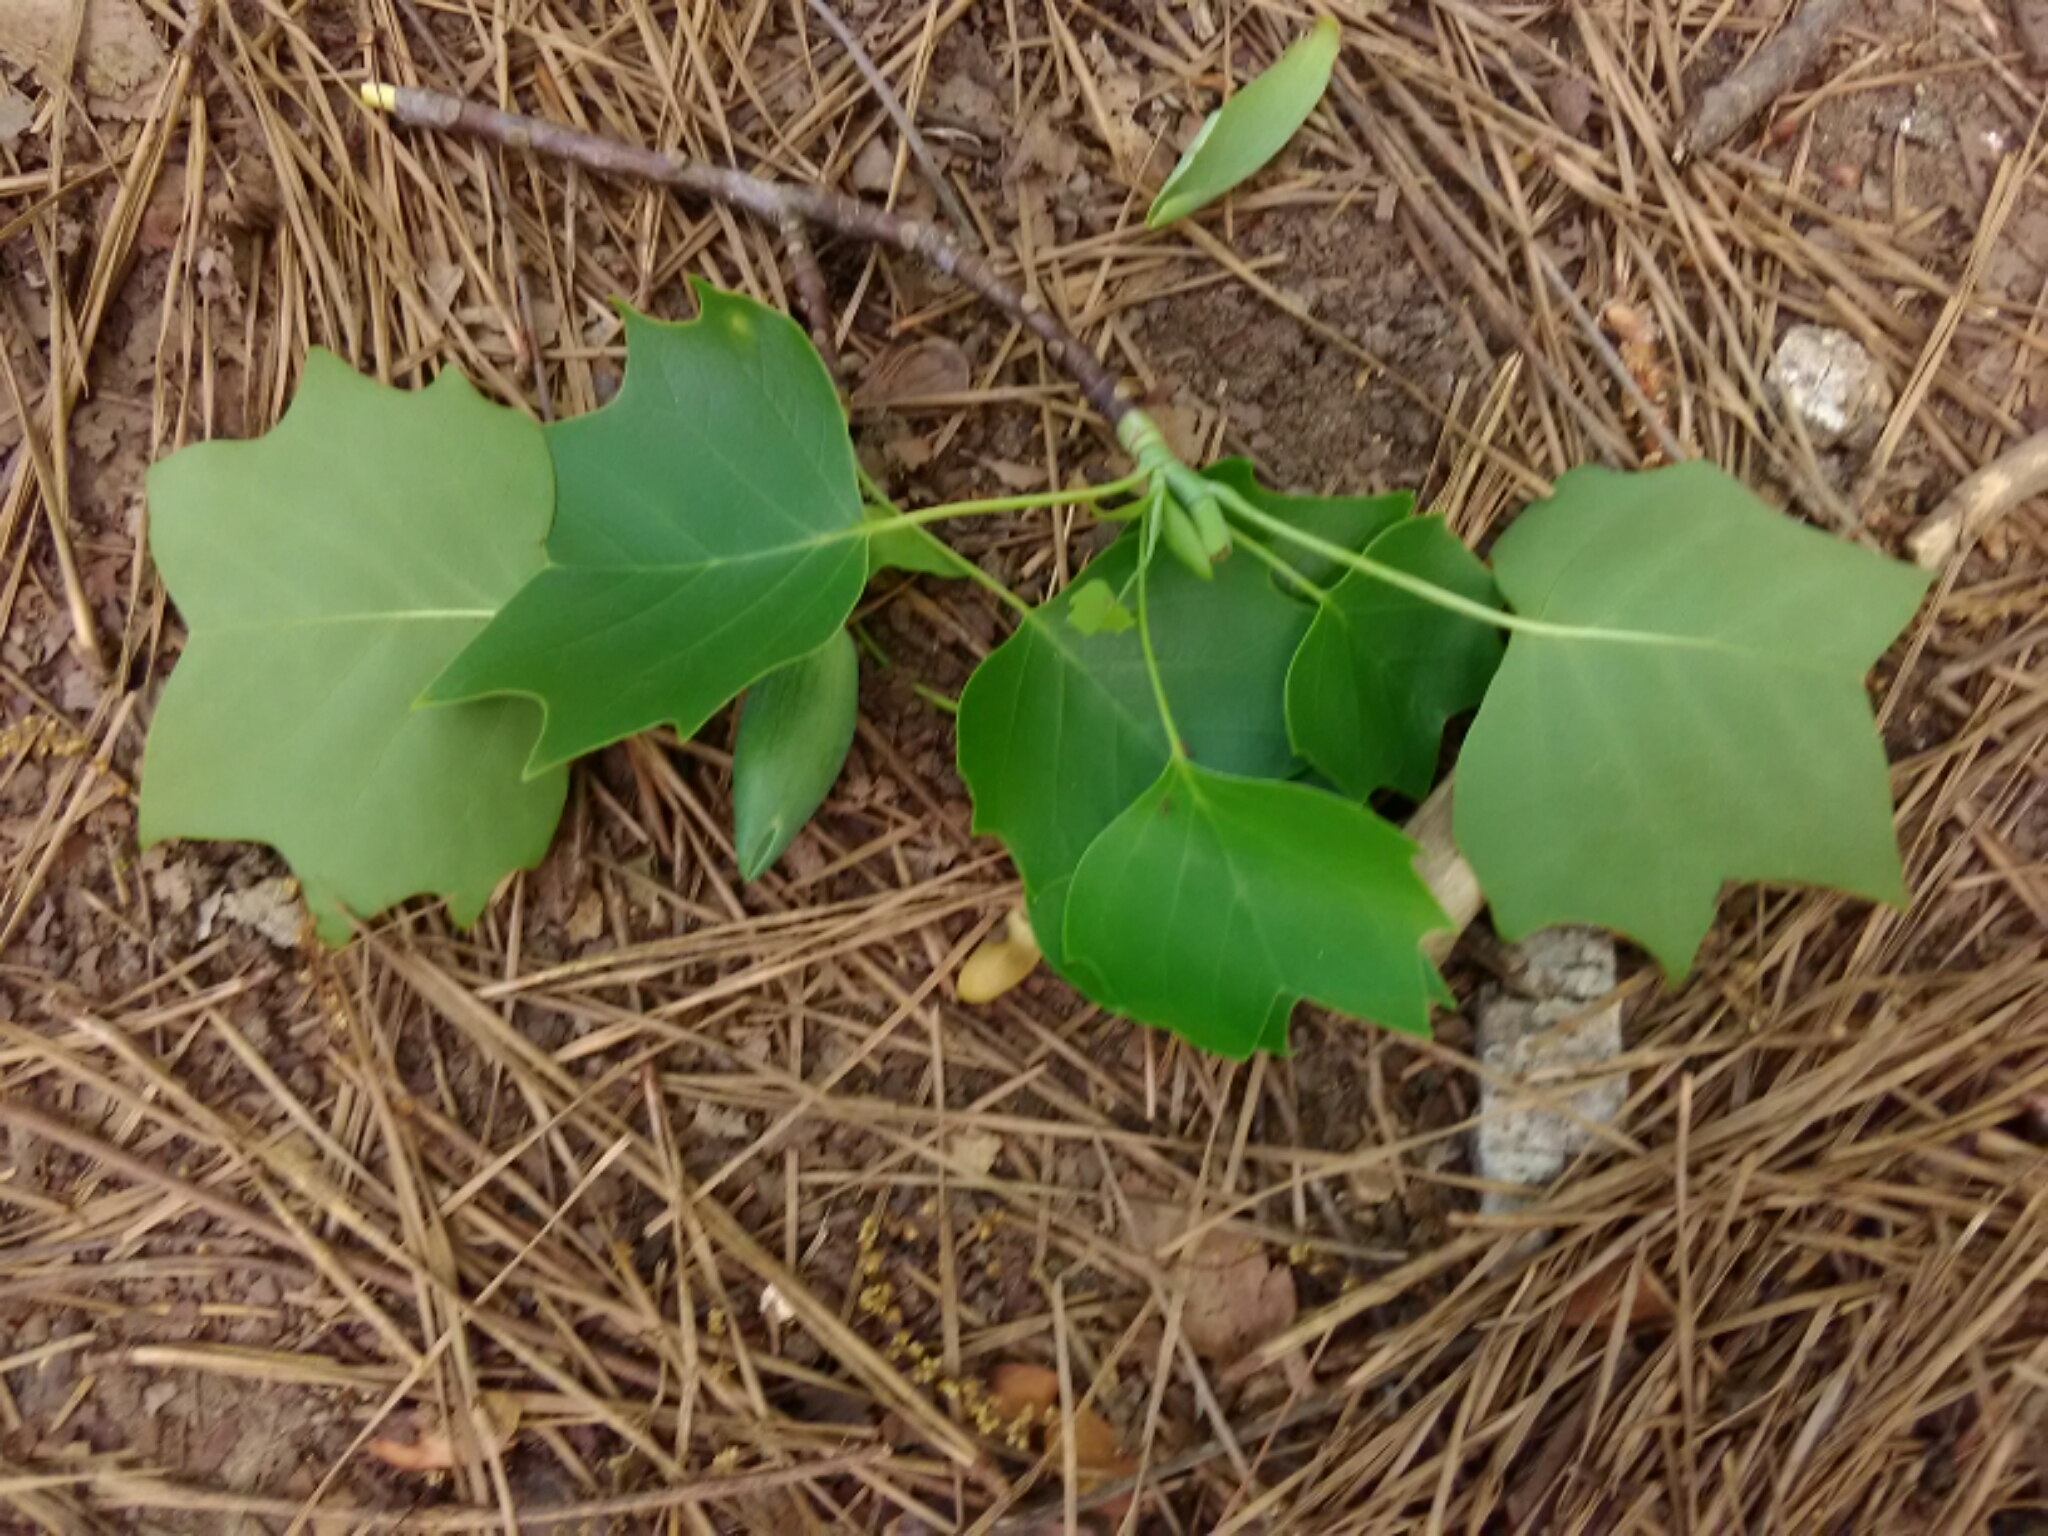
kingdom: Plantae
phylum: Tracheophyta
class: Magnoliopsida
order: Magnoliales
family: Magnoliaceae
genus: Liriodendron
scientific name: Liriodendron tulipifera
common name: Tulip tree
